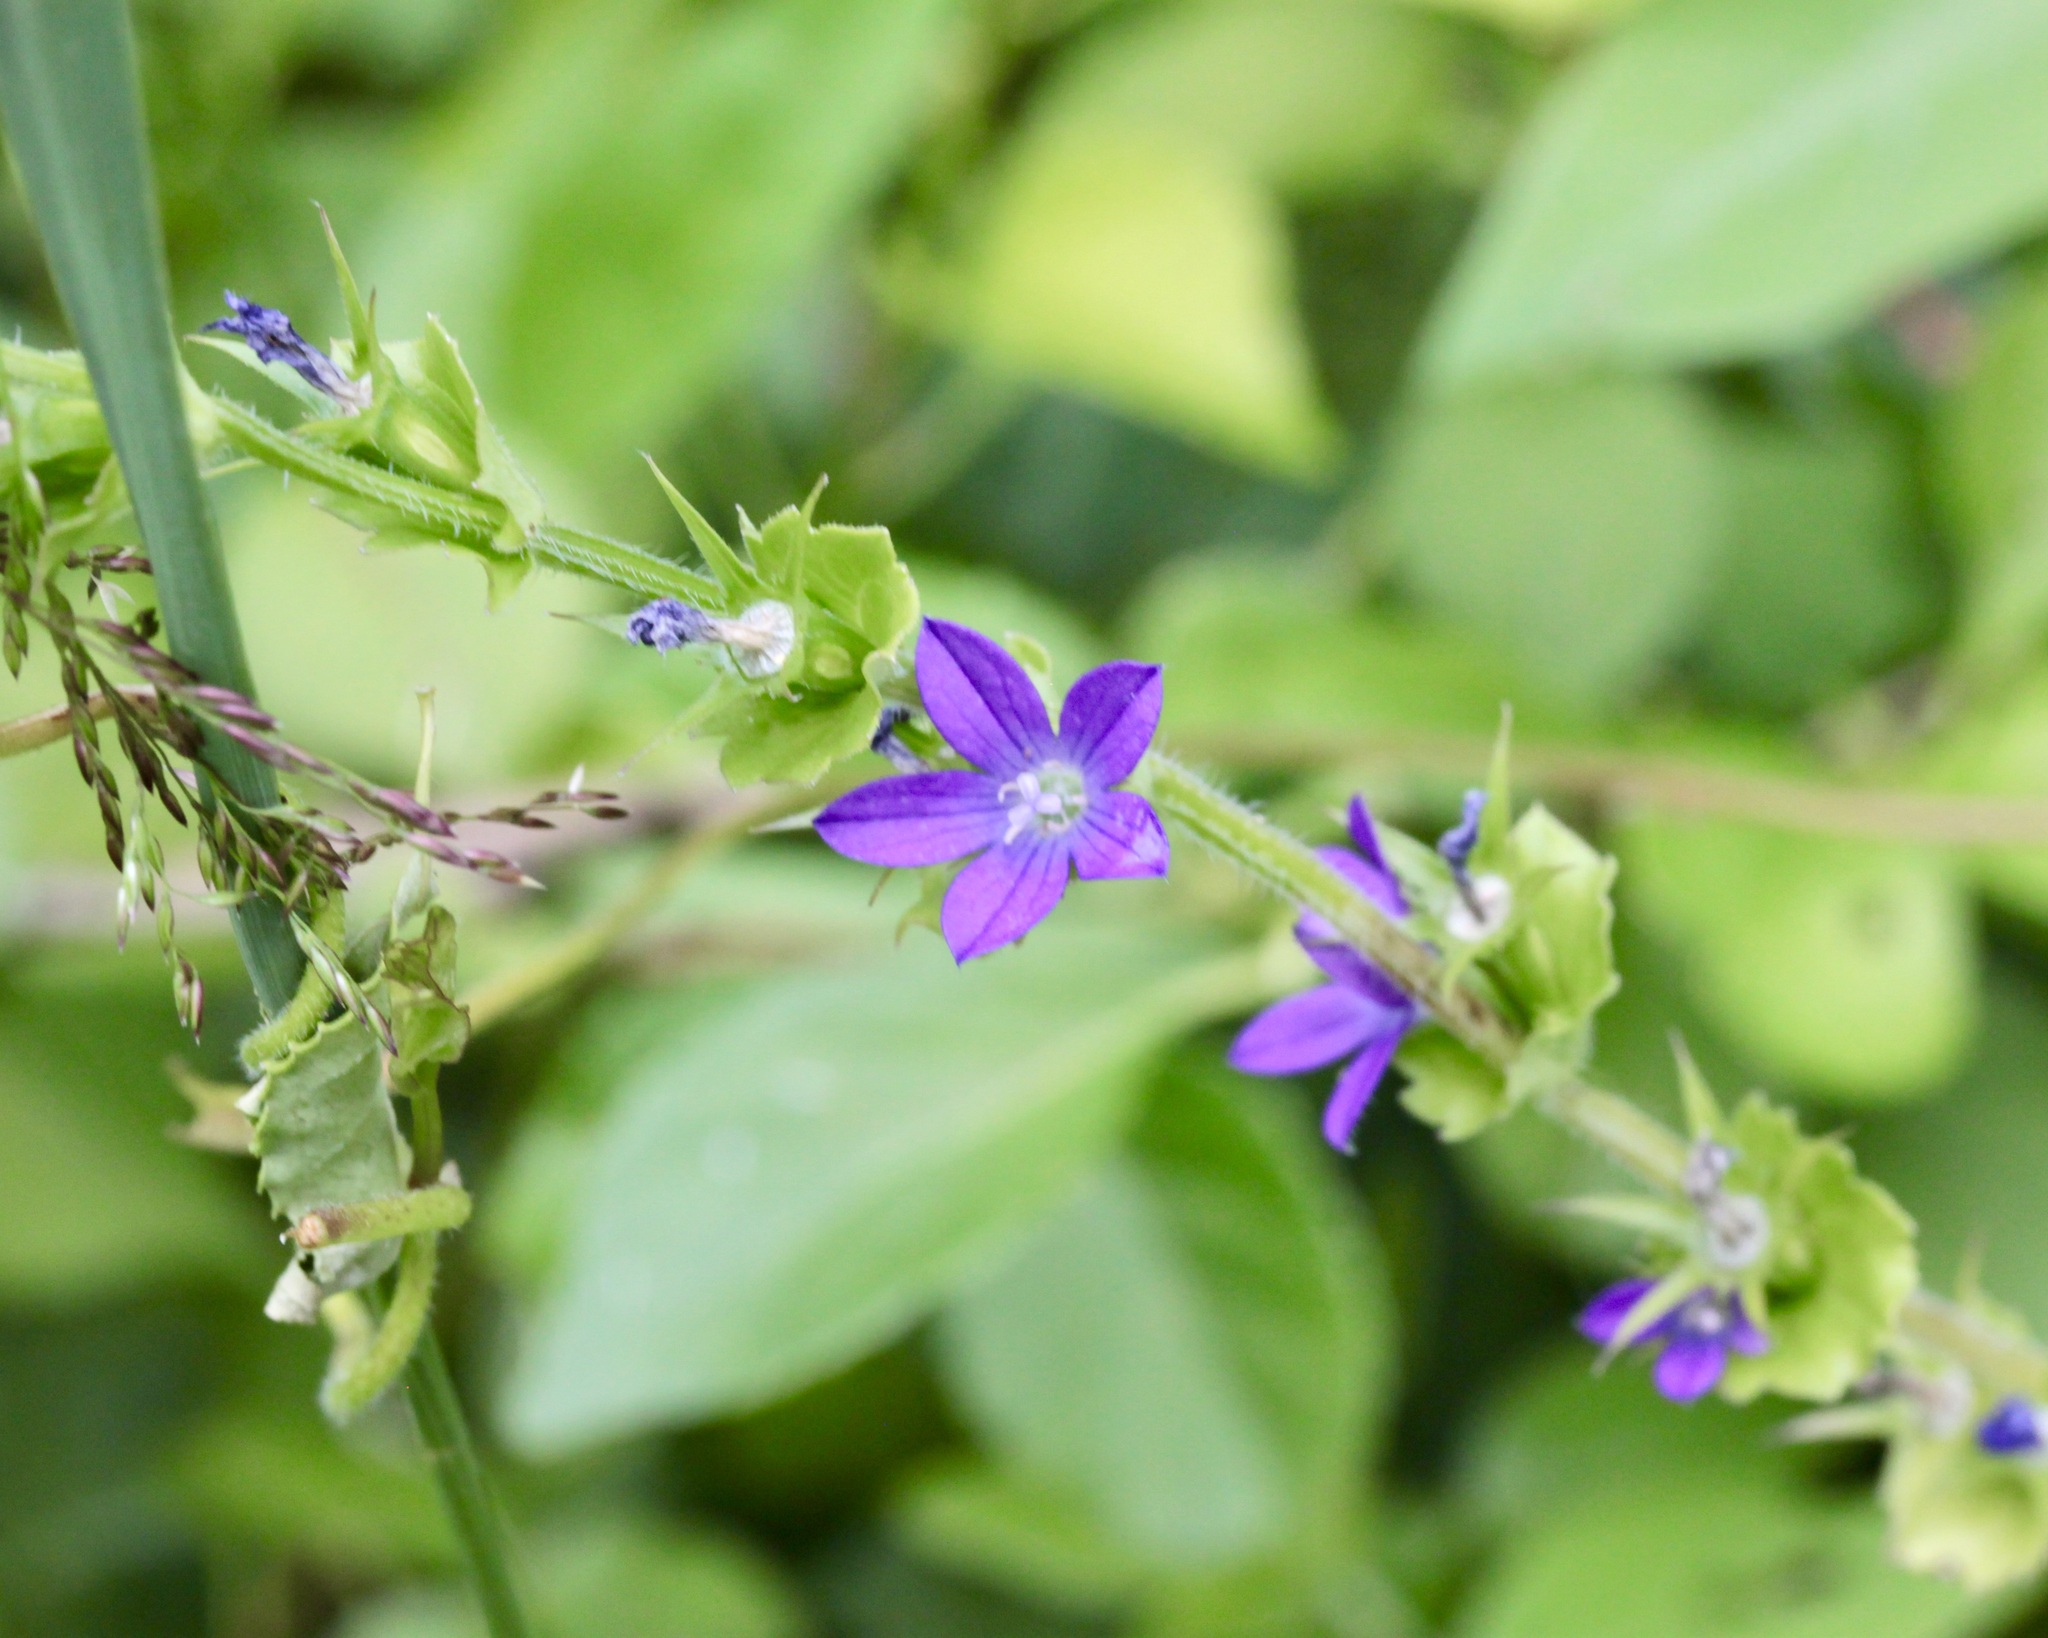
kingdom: Plantae
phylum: Tracheophyta
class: Magnoliopsida
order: Asterales
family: Campanulaceae
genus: Triodanis
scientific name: Triodanis perfoliata
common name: Clasping venus' looking-glass
